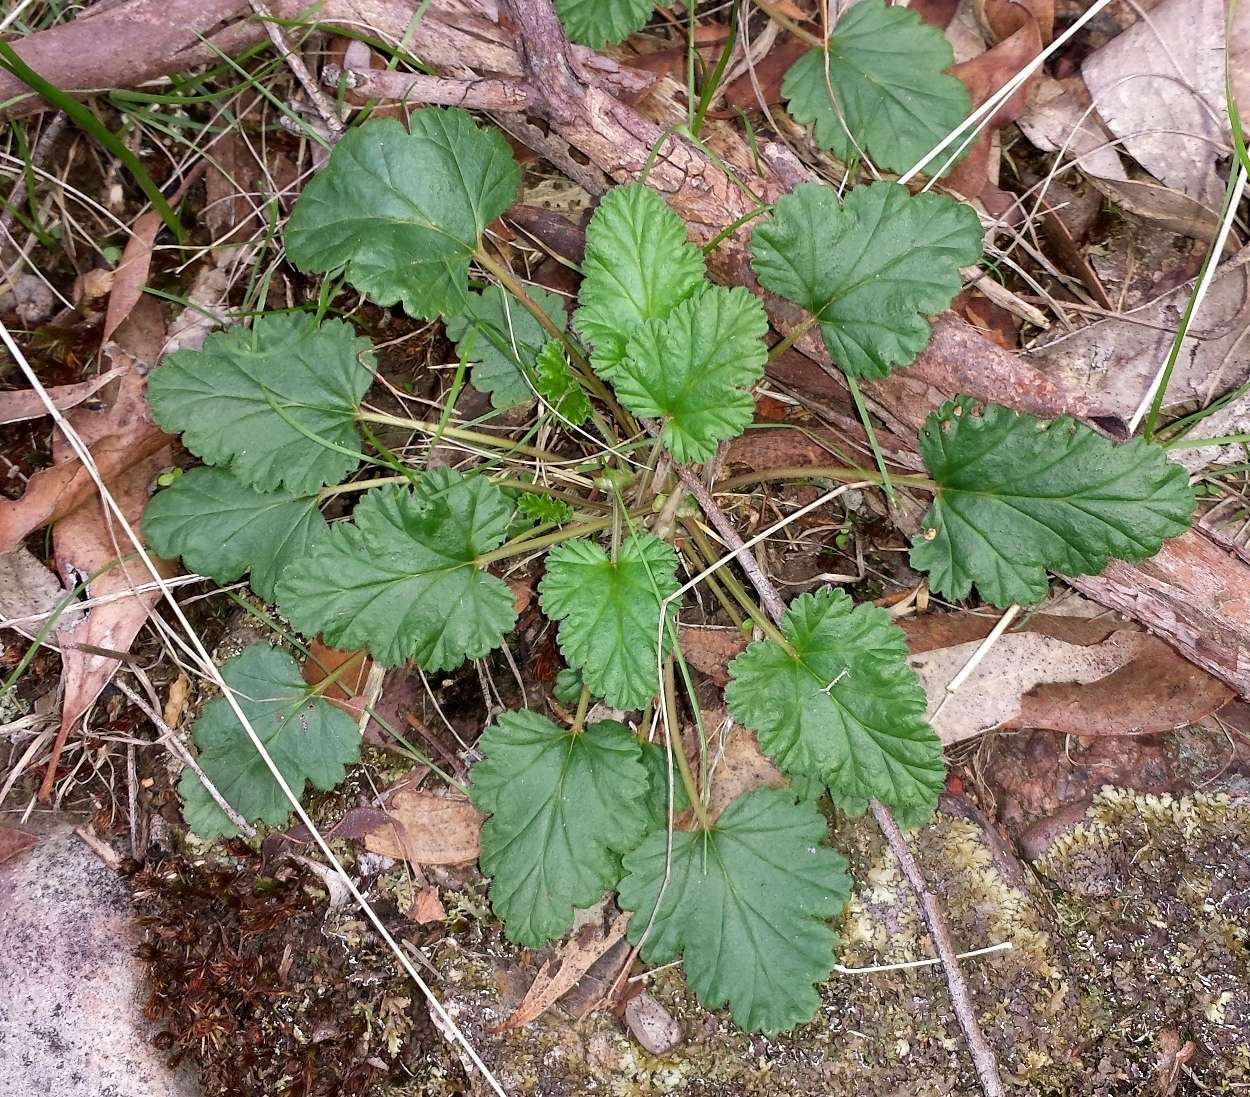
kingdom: Plantae
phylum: Tracheophyta
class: Magnoliopsida
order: Geraniales
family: Geraniaceae
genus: Pelargonium
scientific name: Pelargonium rodneyanum
